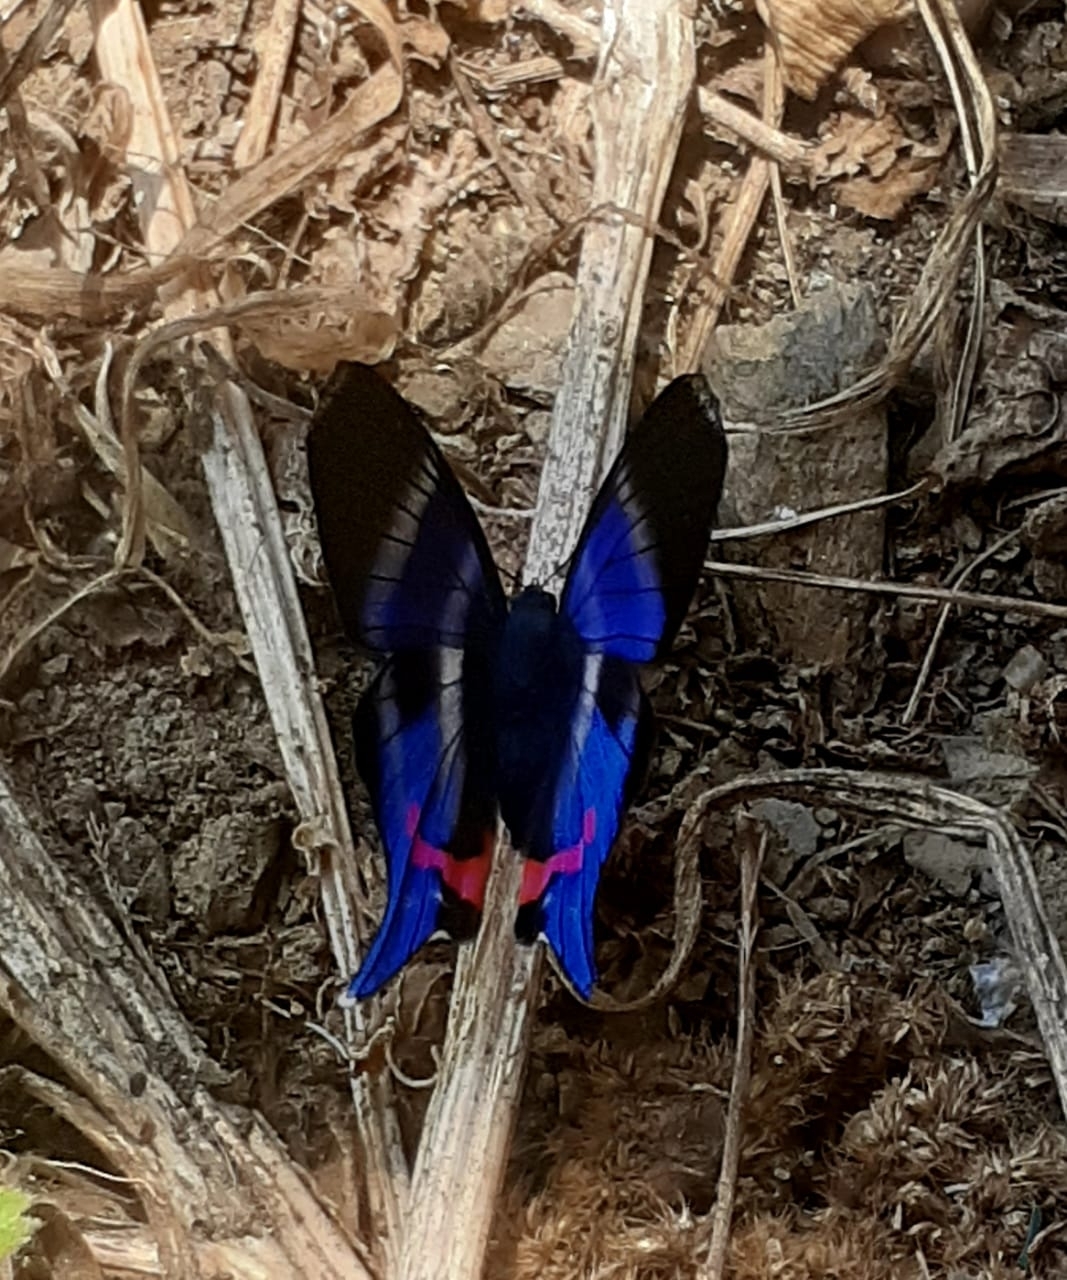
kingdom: Animalia
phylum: Arthropoda
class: Insecta
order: Lepidoptera
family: Riodinidae
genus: Rhetus
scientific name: Rhetus dysonii
